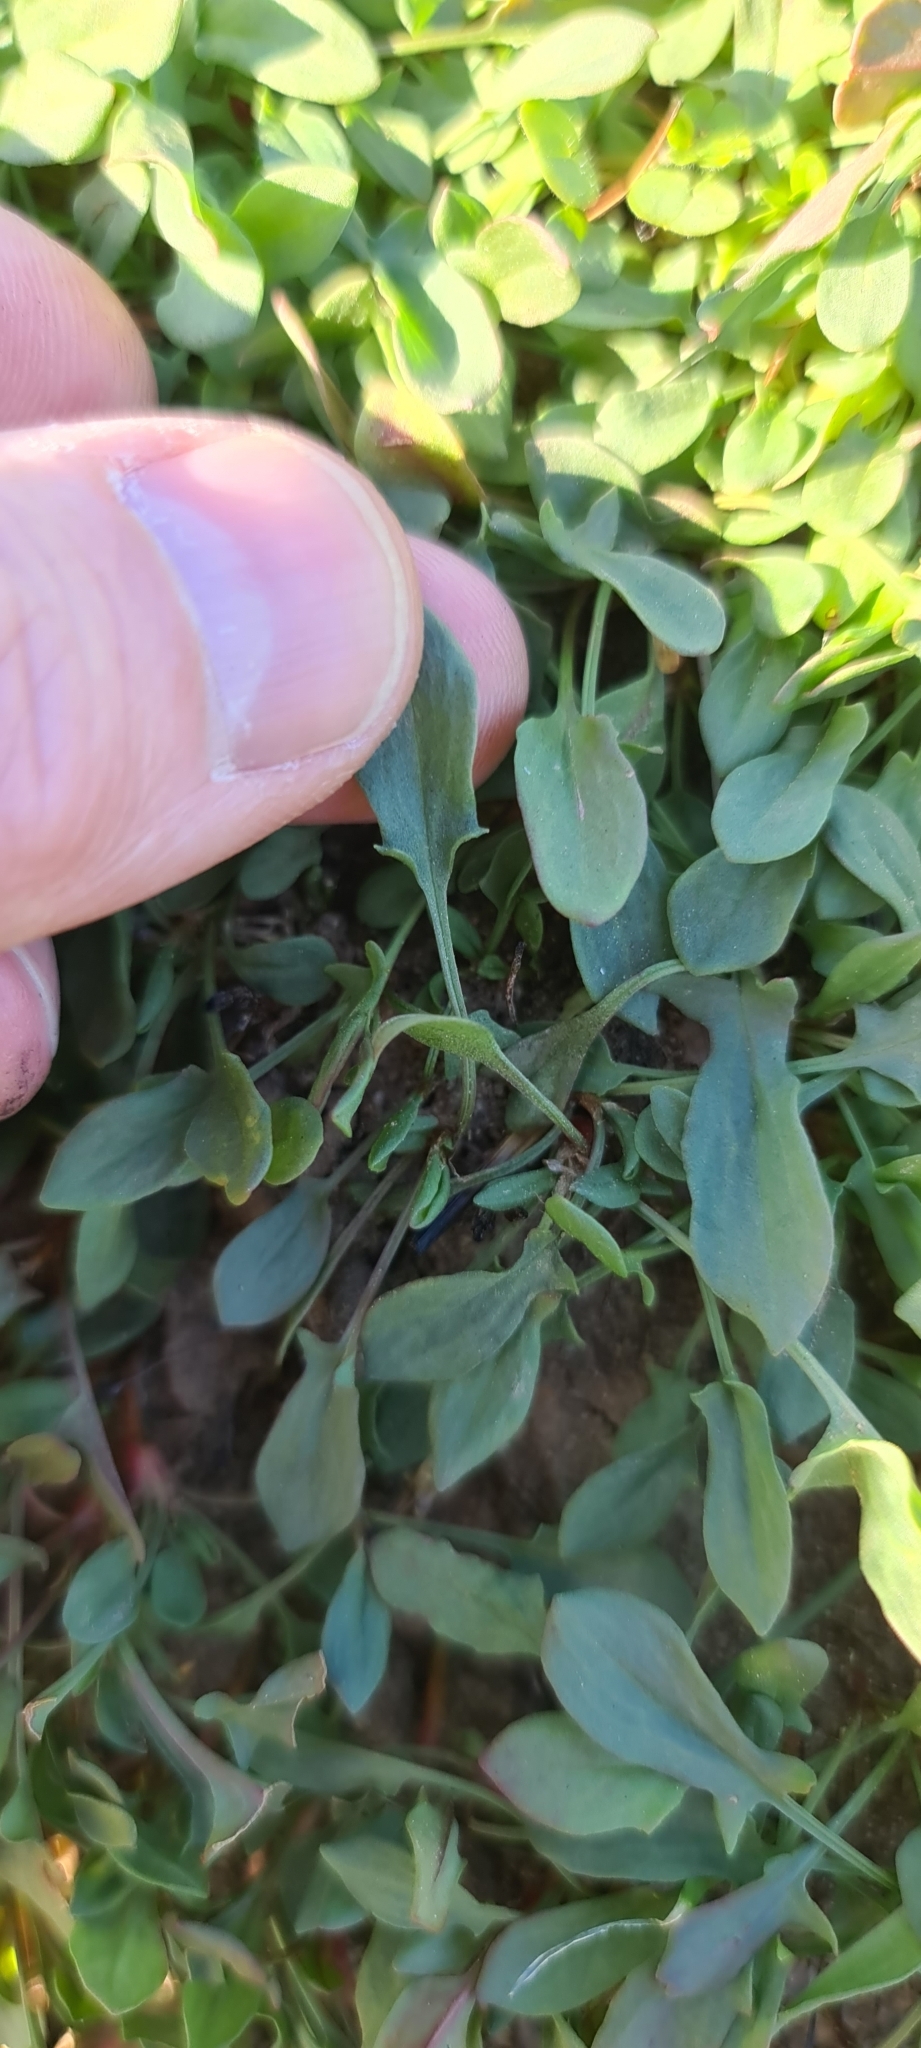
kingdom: Plantae
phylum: Tracheophyta
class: Magnoliopsida
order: Caryophyllales
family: Polygonaceae
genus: Rumex
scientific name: Rumex acetosella
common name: Common sheep sorrel
